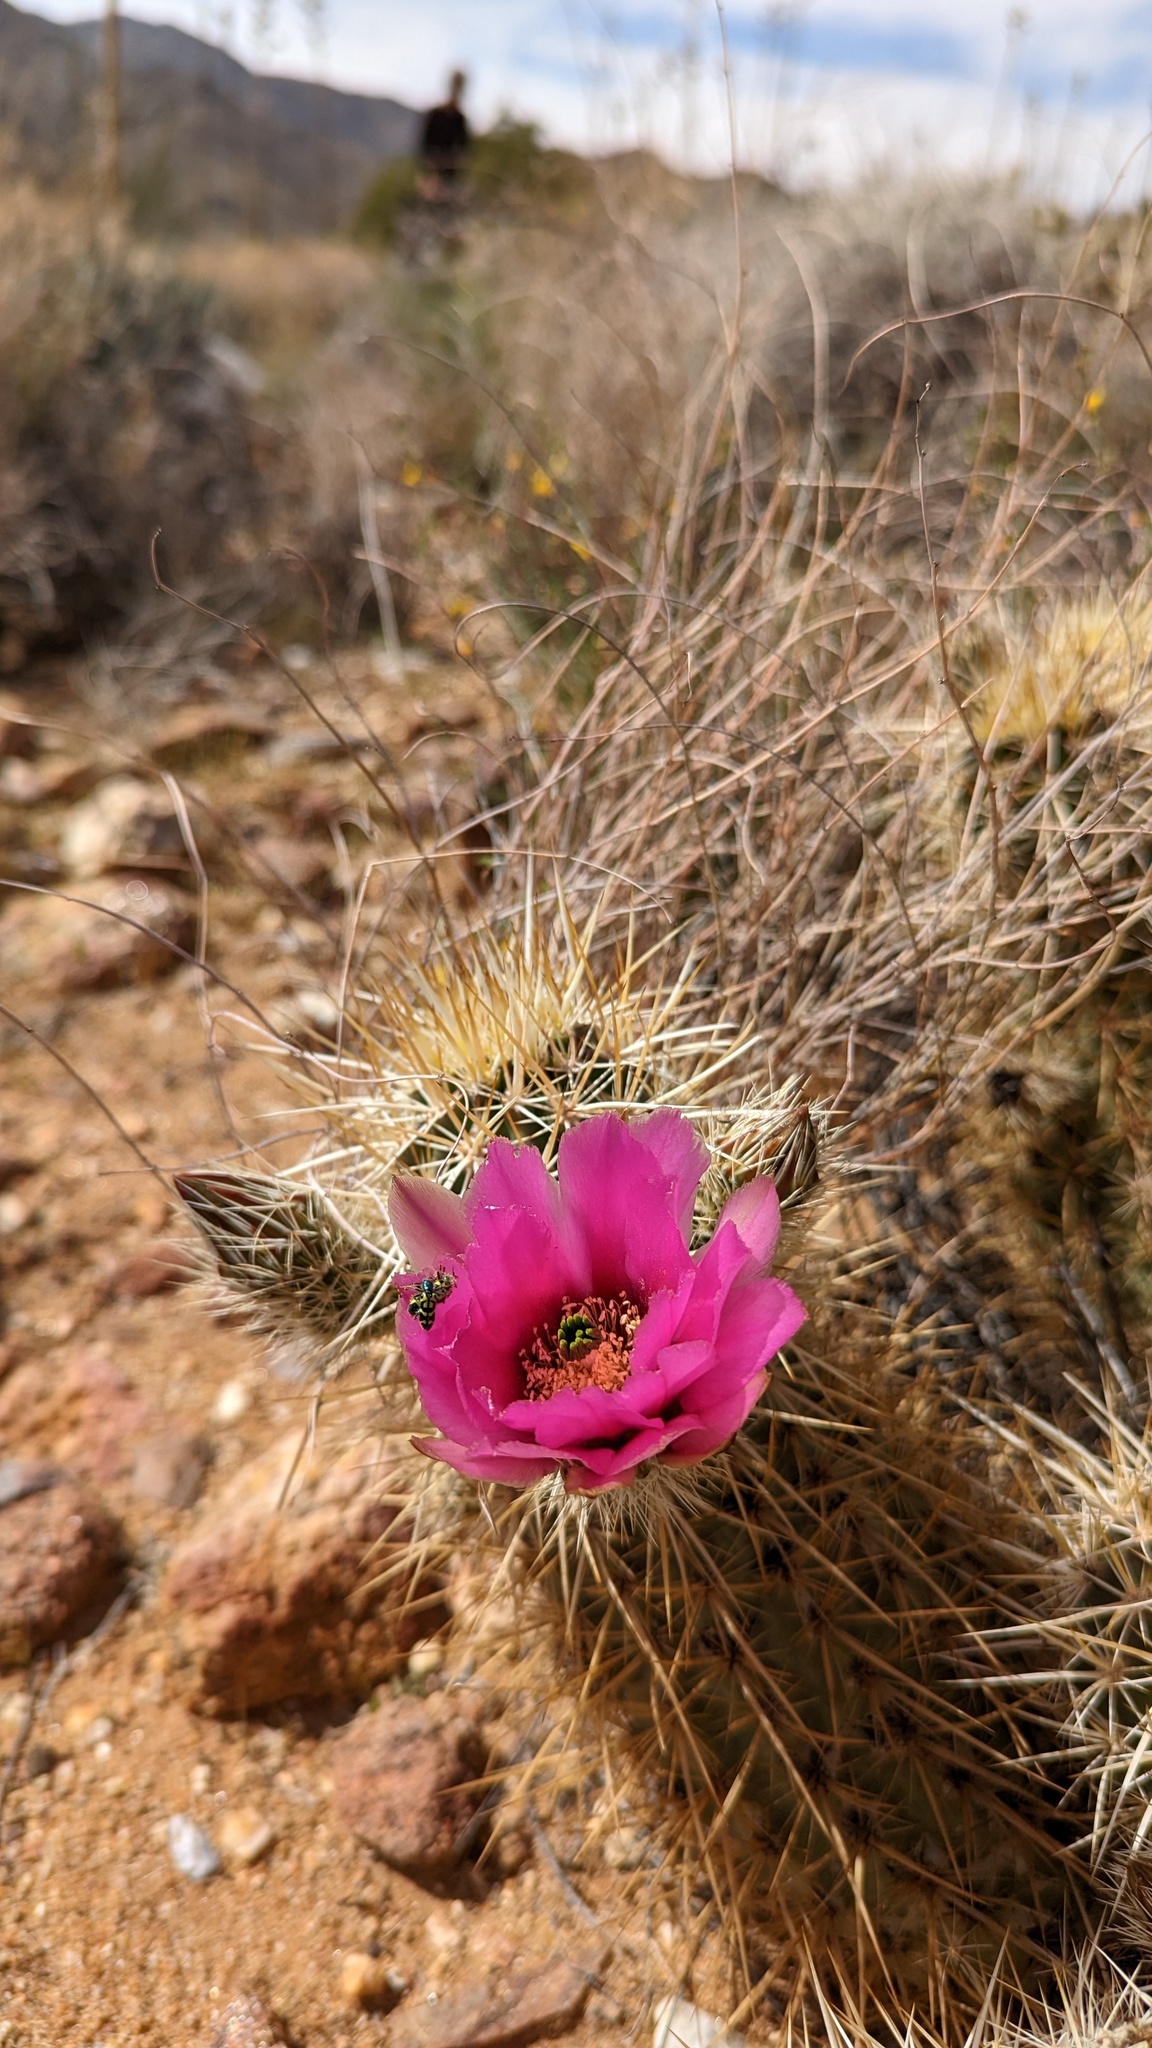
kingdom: Plantae
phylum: Tracheophyta
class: Magnoliopsida
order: Caryophyllales
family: Cactaceae
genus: Echinocereus
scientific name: Echinocereus engelmannii
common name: Engelmann's hedgehog cactus
